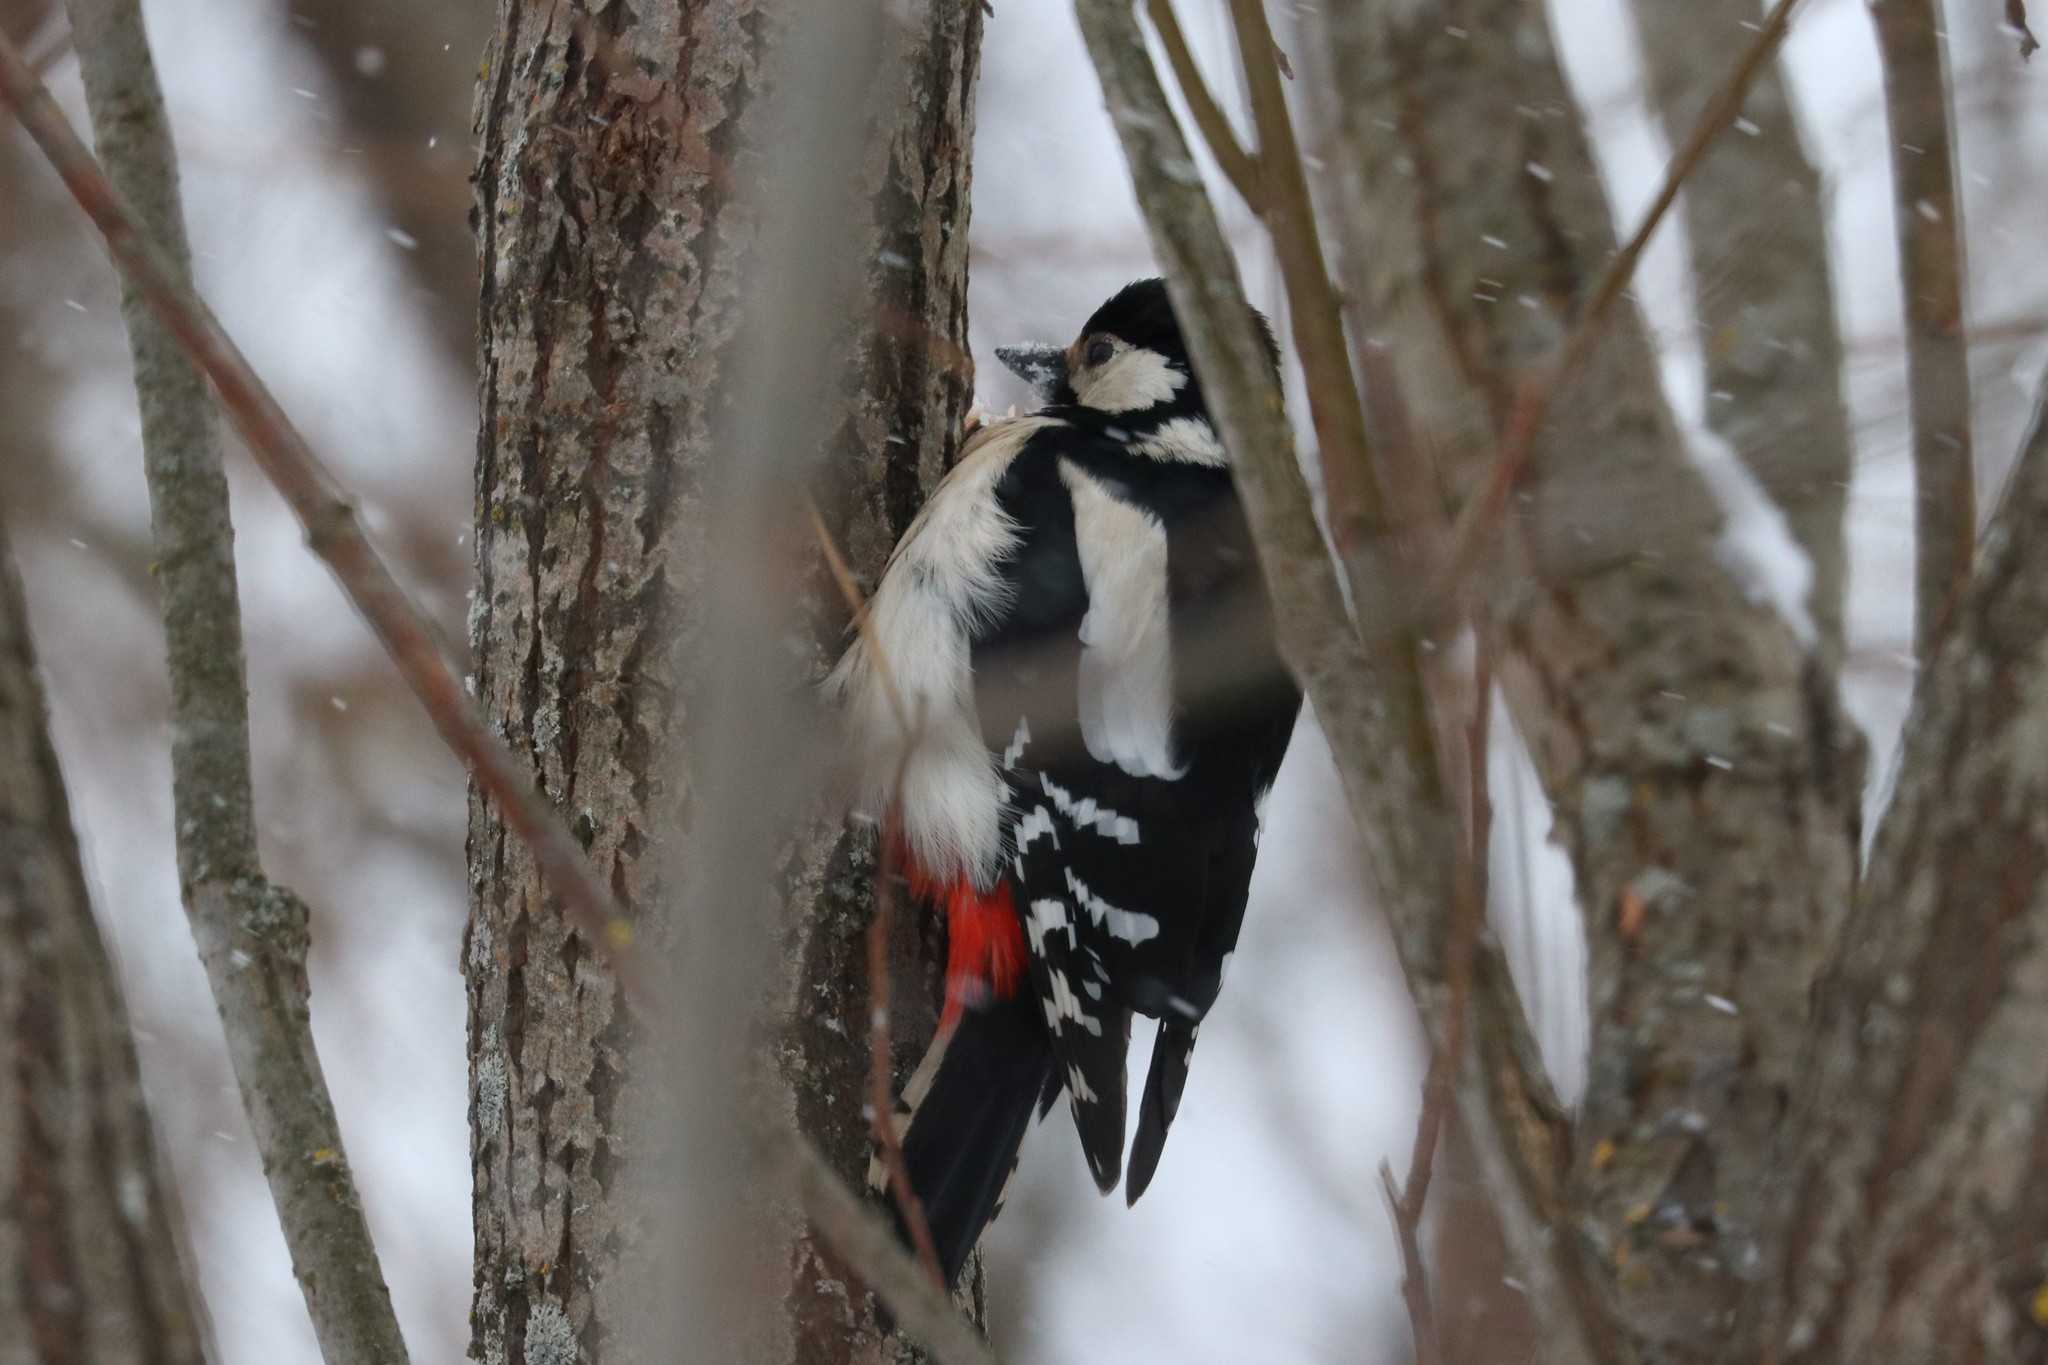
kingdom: Animalia
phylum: Chordata
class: Aves
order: Piciformes
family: Picidae
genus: Dendrocopos
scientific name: Dendrocopos major
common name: Great spotted woodpecker
